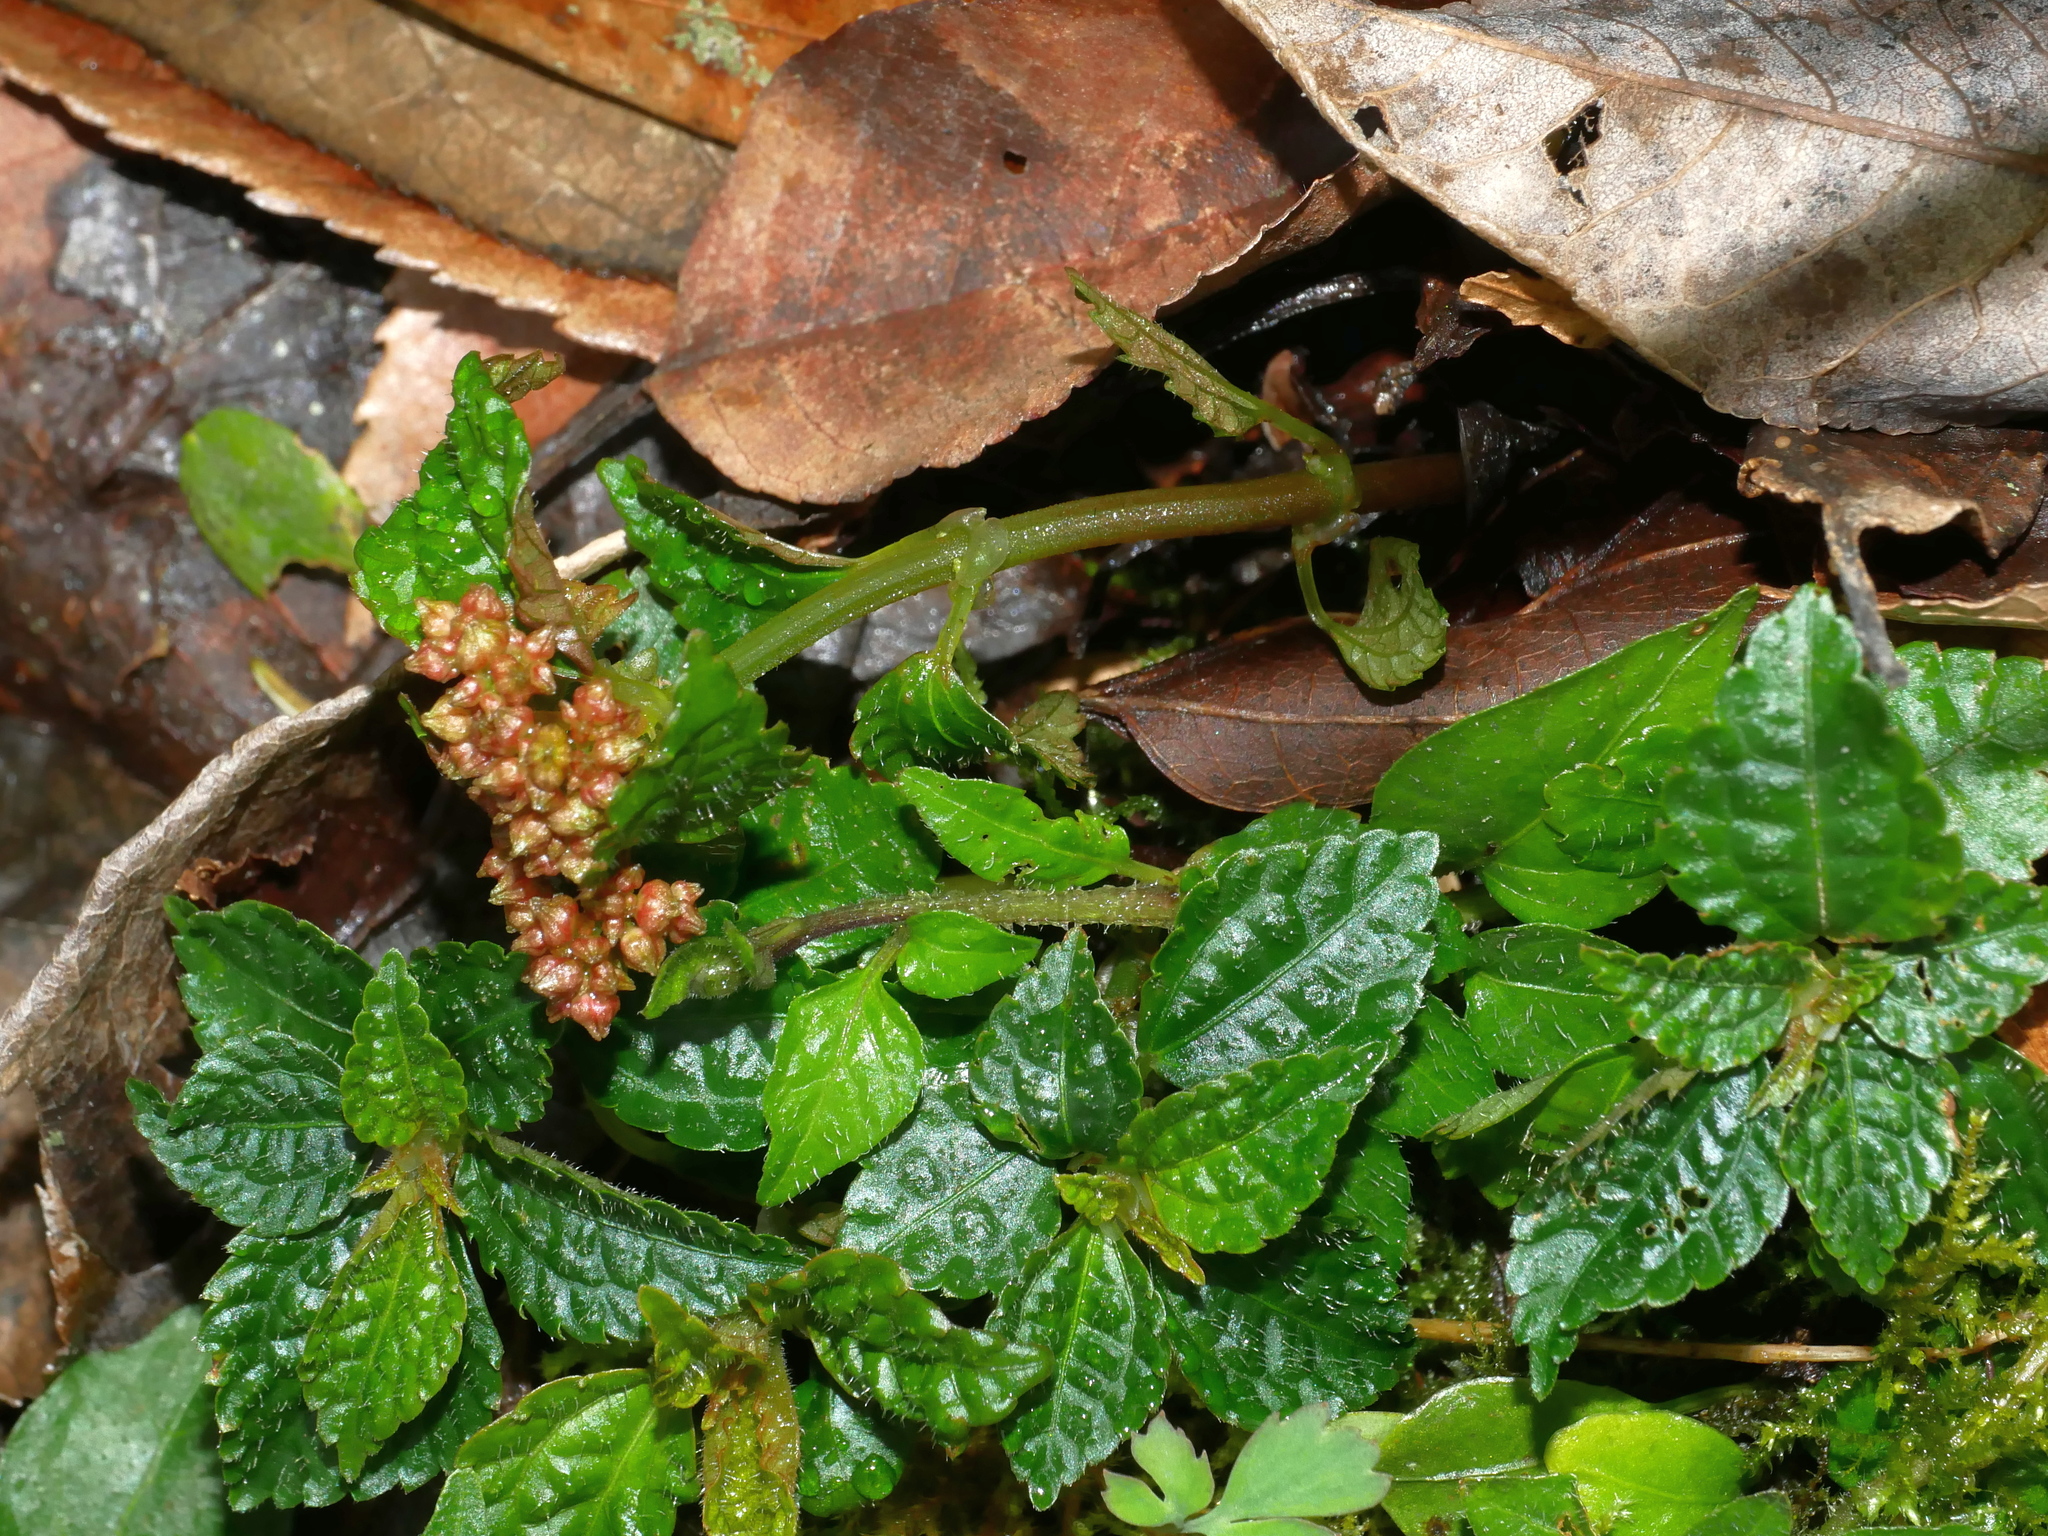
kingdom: Plantae
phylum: Tracheophyta
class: Magnoliopsida
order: Rosales
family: Urticaceae
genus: Pilea
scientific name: Pilea brevicornuta
